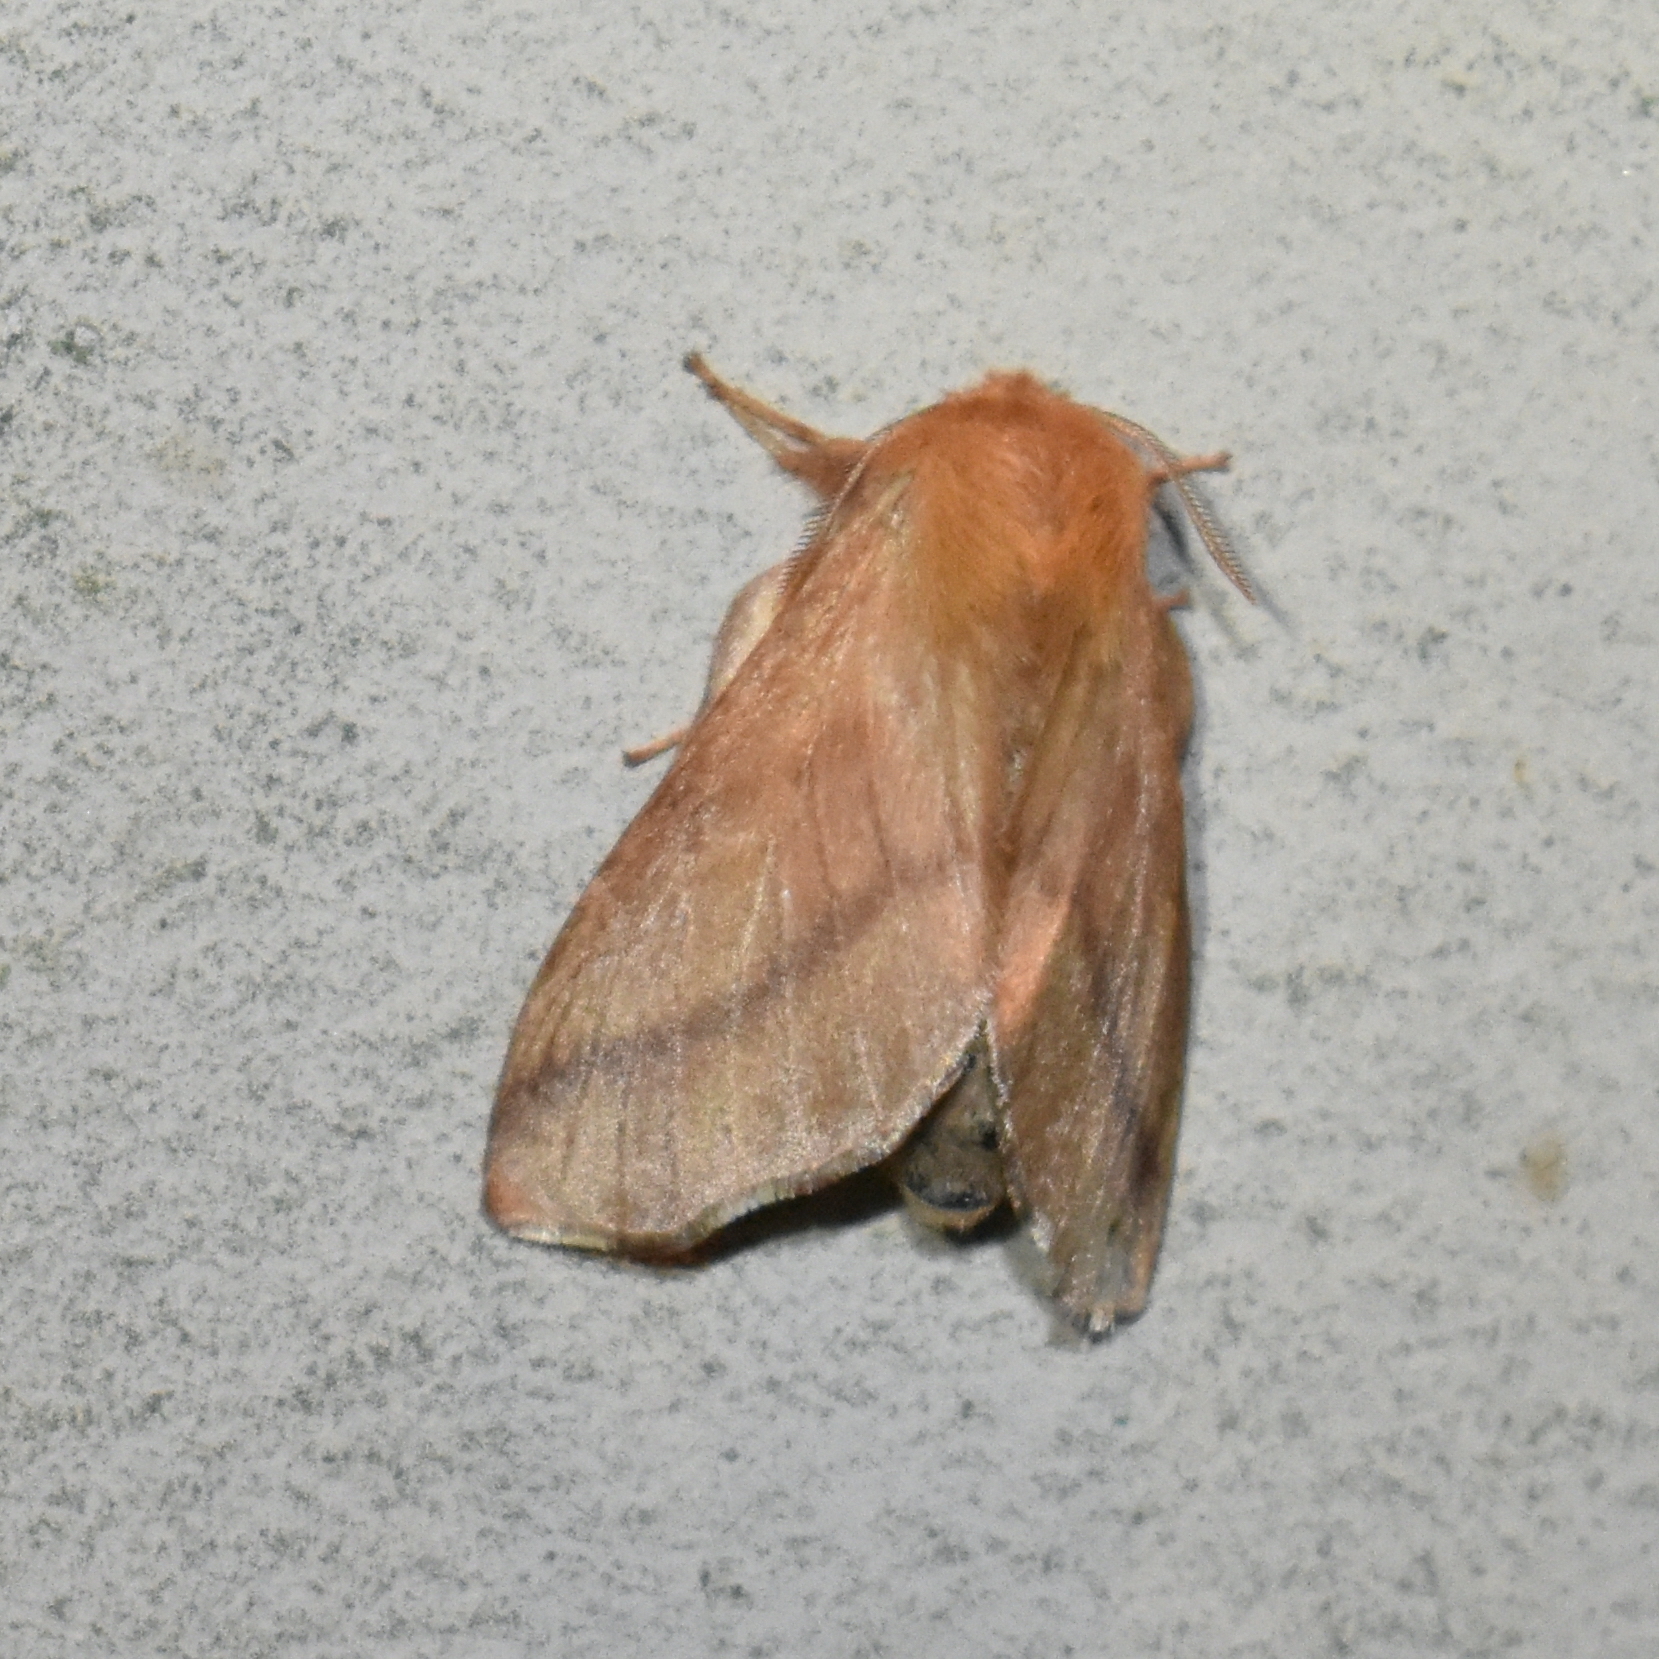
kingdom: Animalia
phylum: Arthropoda
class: Insecta
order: Lepidoptera
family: Lasiocampidae
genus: Malacosoma
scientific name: Malacosoma disstria
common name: Forest tent caterpillar
